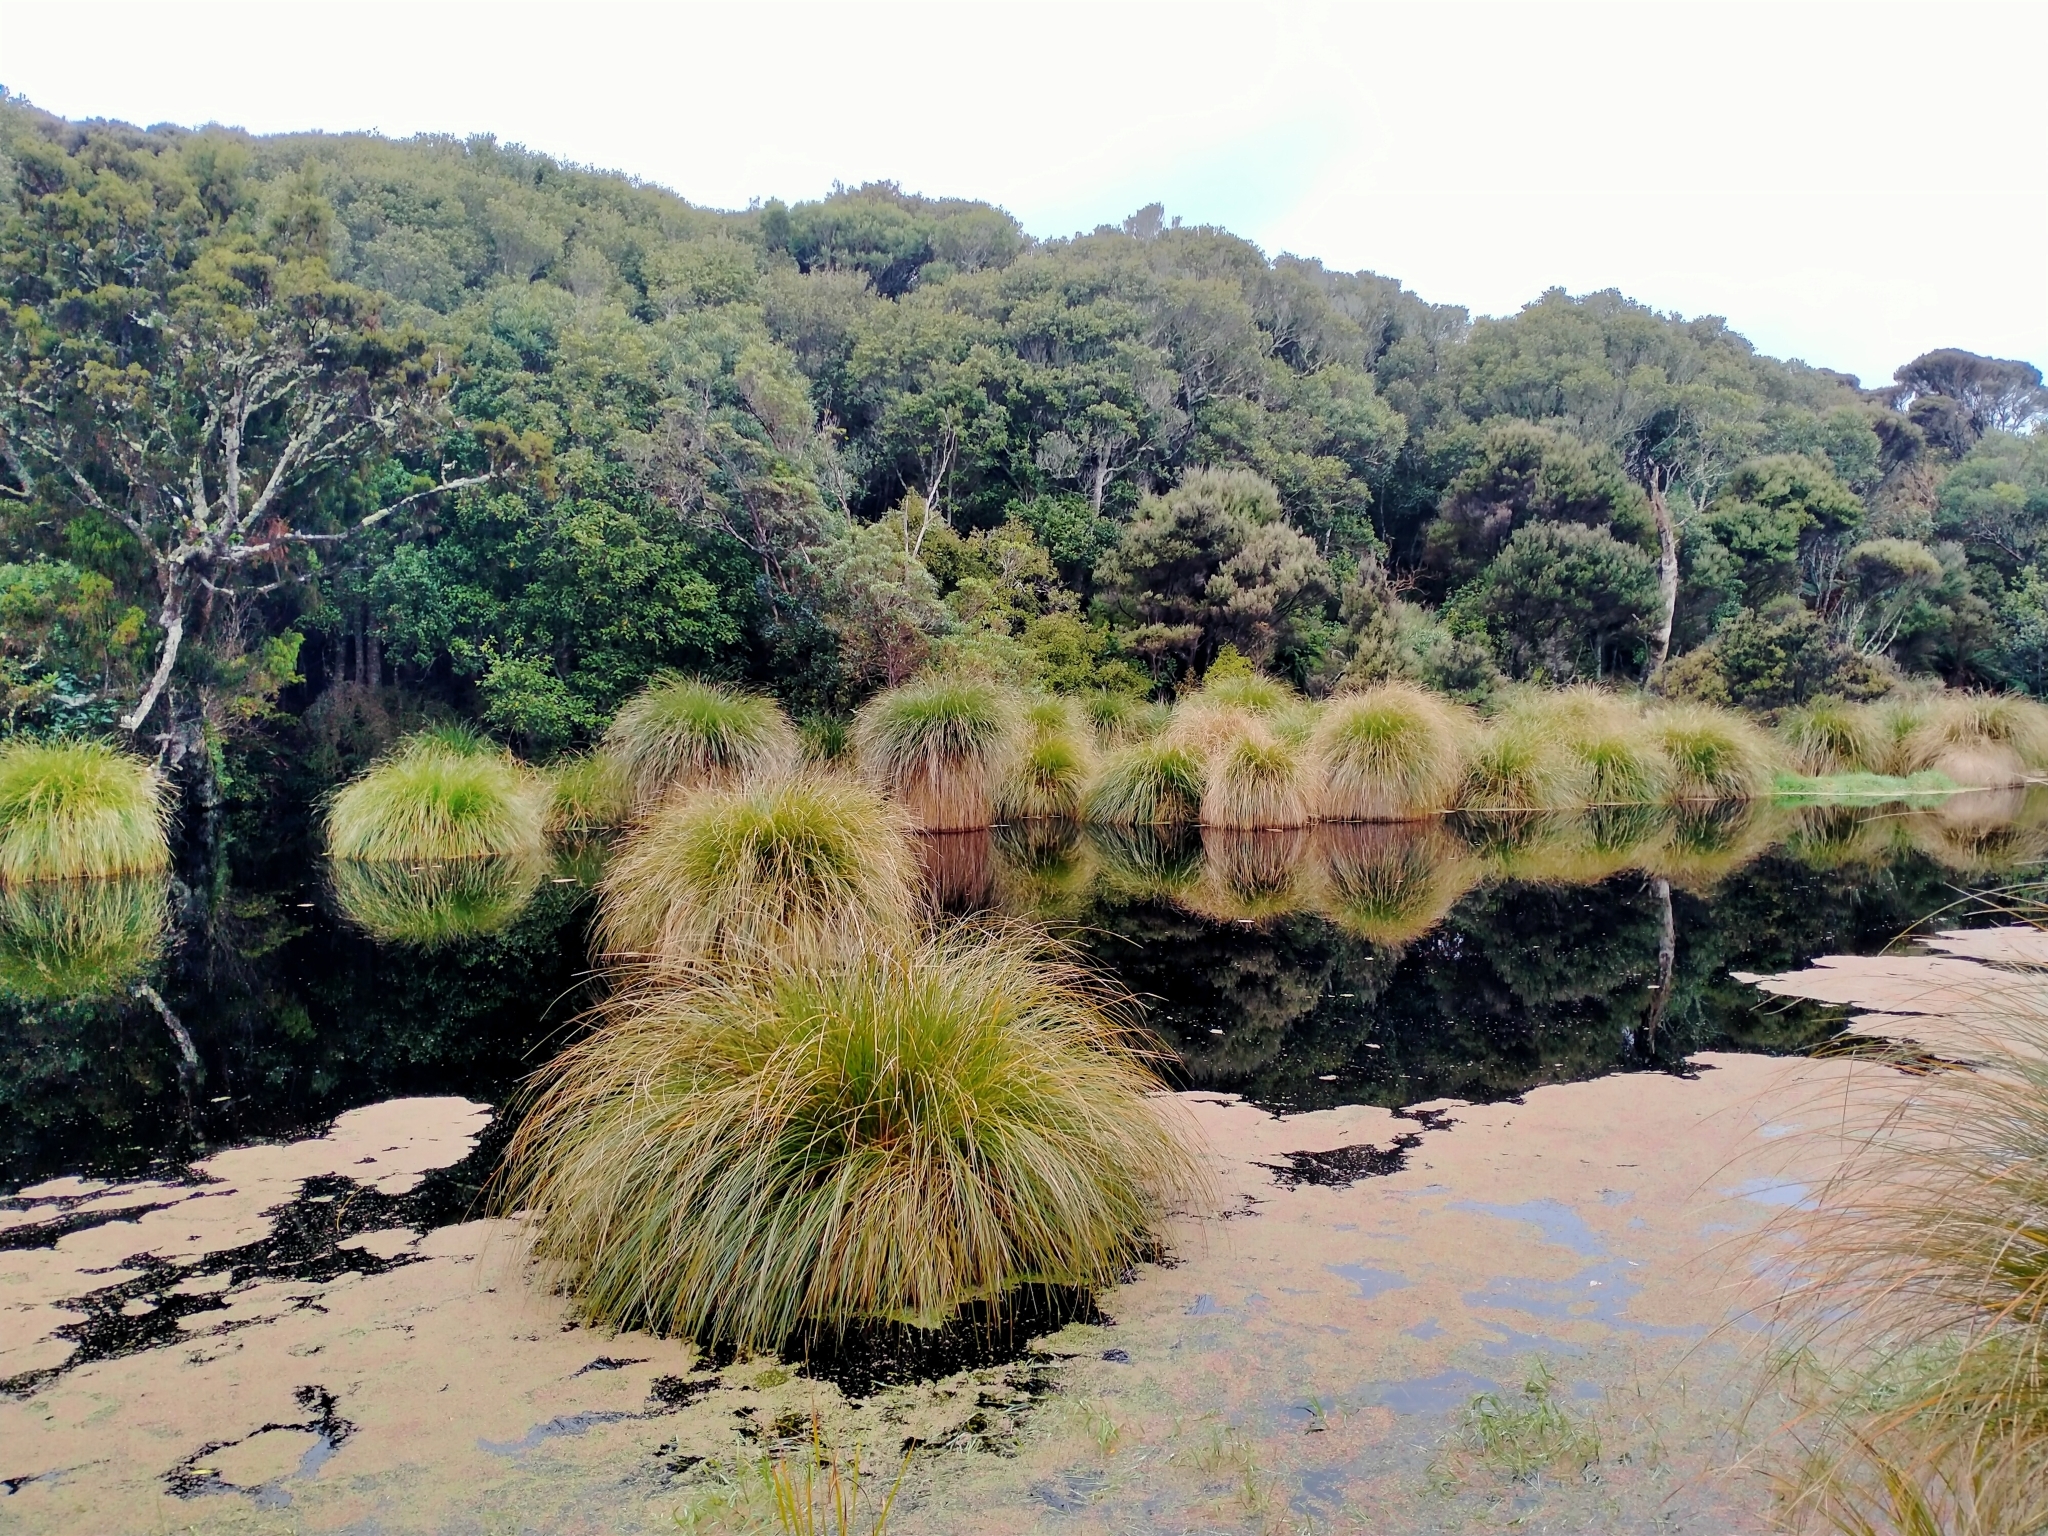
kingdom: Plantae
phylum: Tracheophyta
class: Liliopsida
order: Poales
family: Cyperaceae
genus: Carex
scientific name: Carex secta
